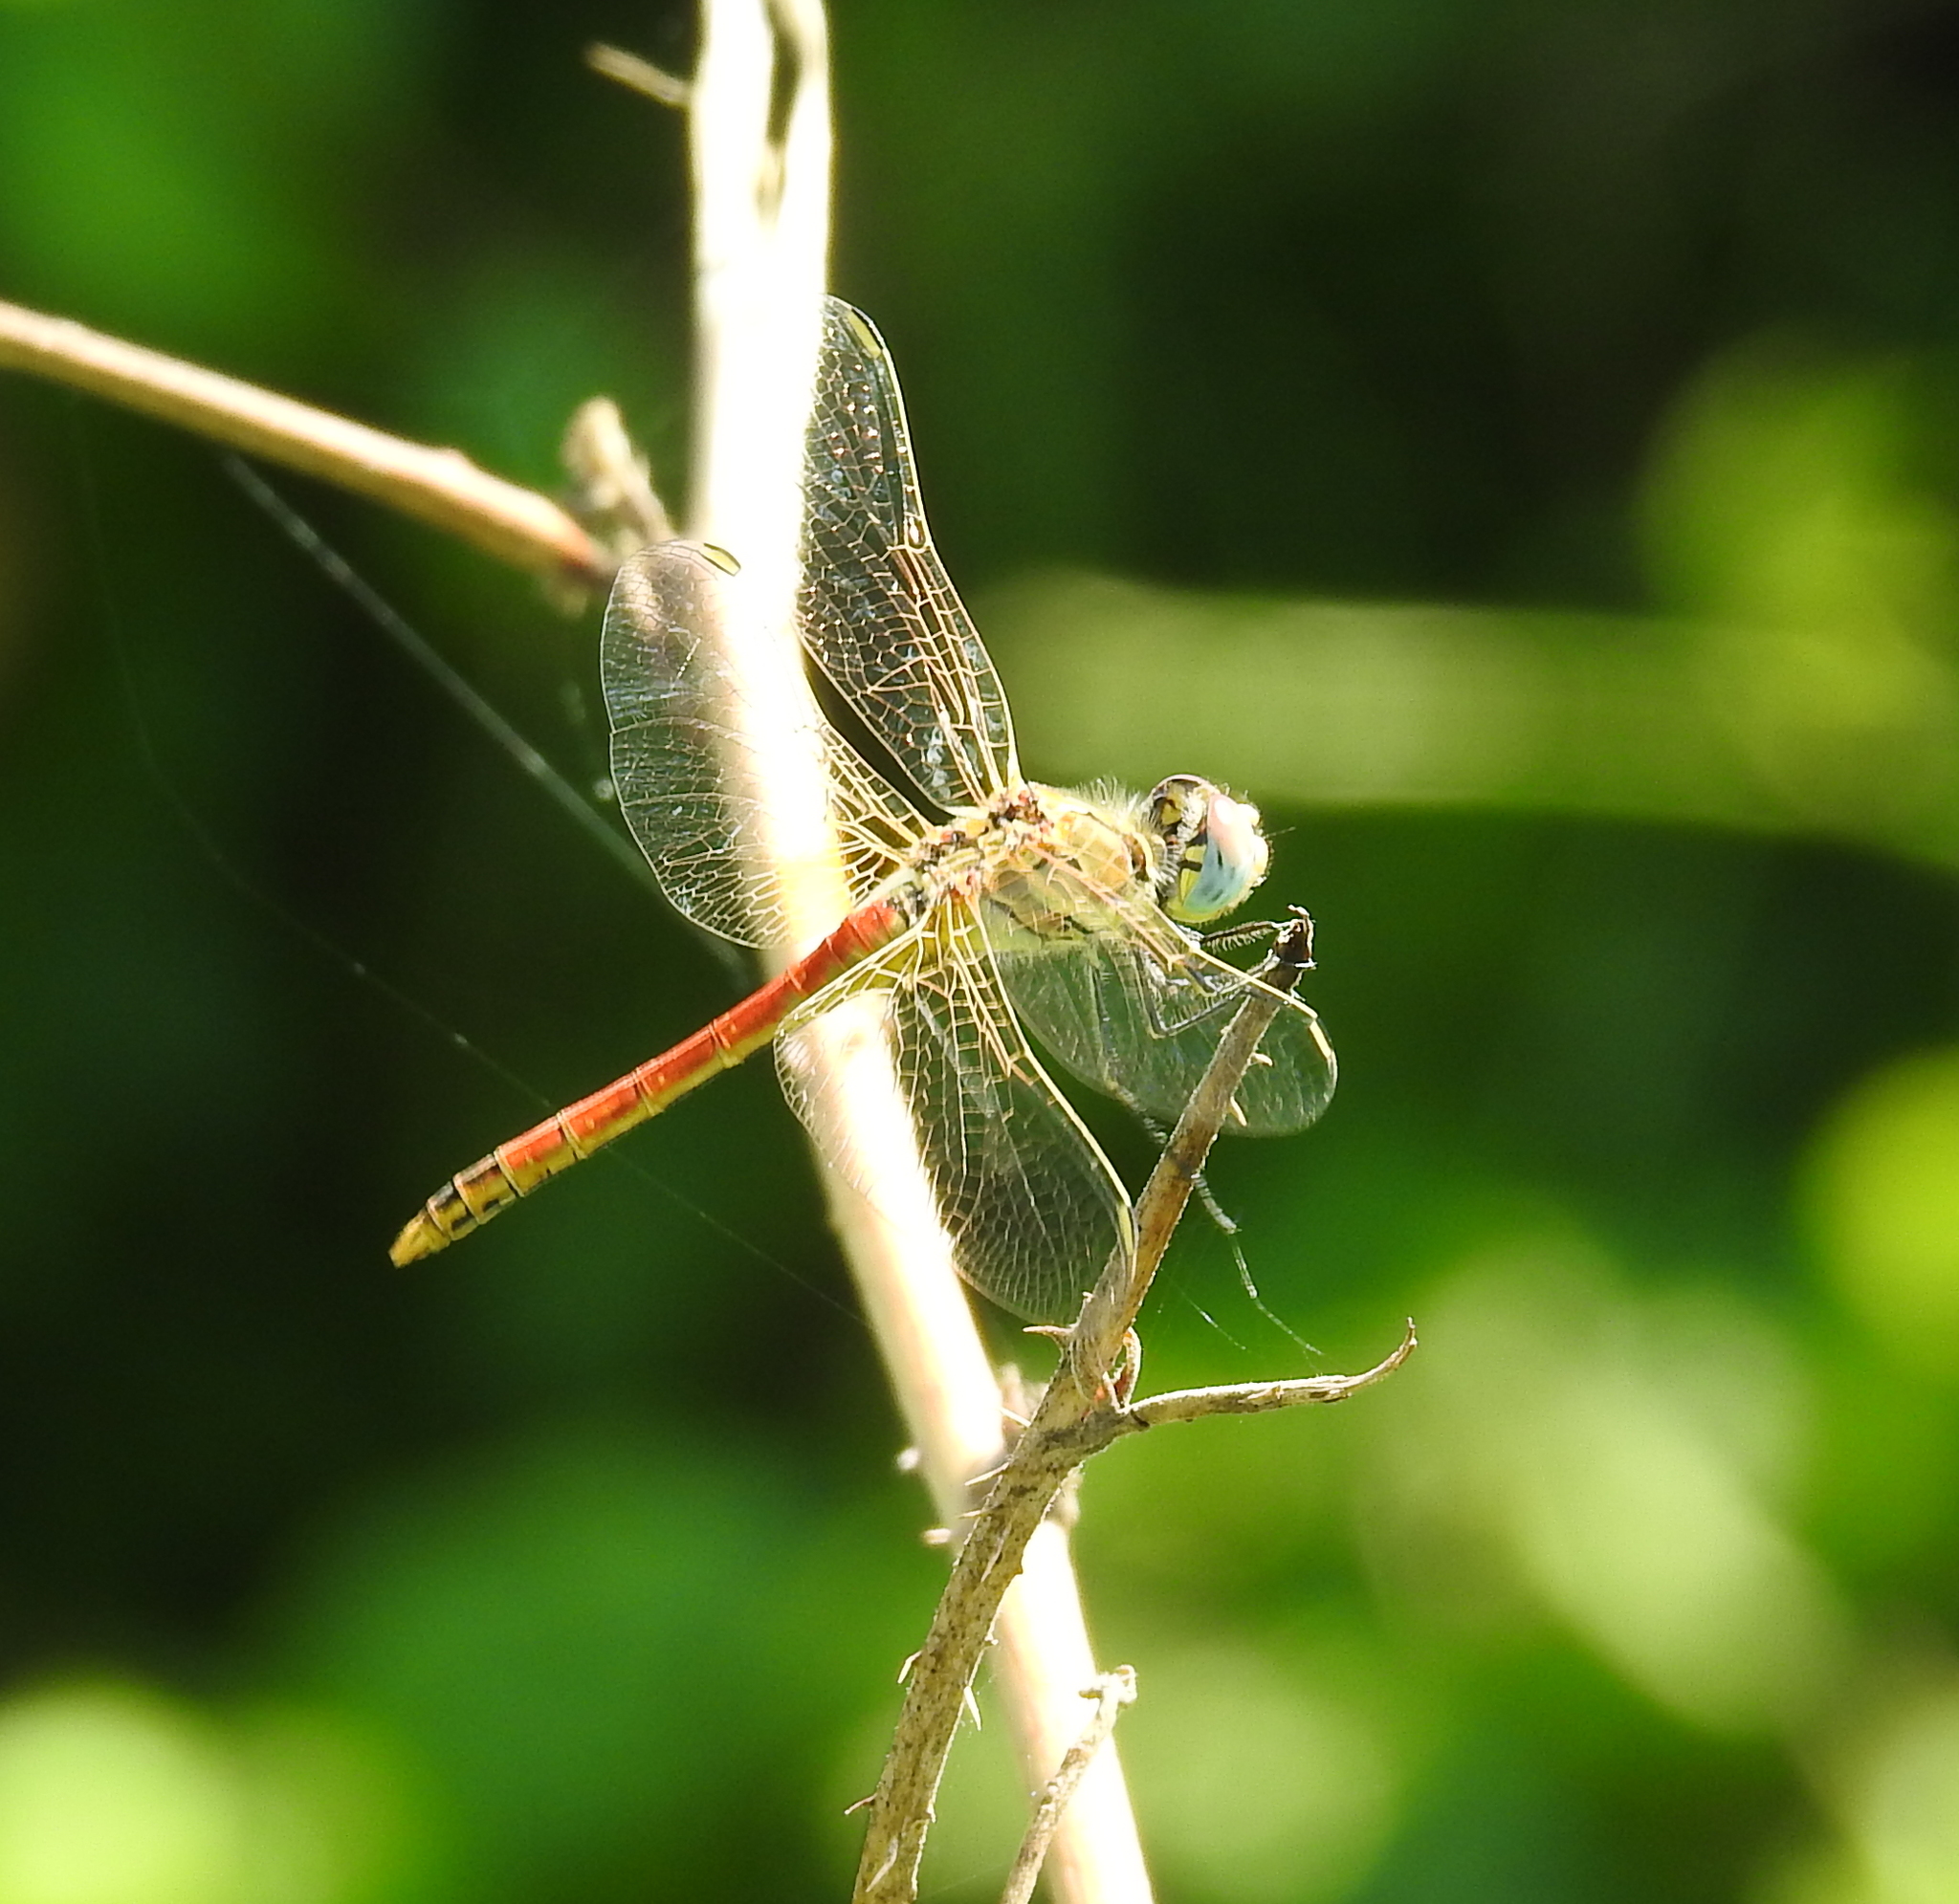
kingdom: Animalia
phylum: Arthropoda
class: Insecta
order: Odonata
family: Libellulidae
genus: Sympetrum
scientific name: Sympetrum fonscolombii
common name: Red-veined darter
